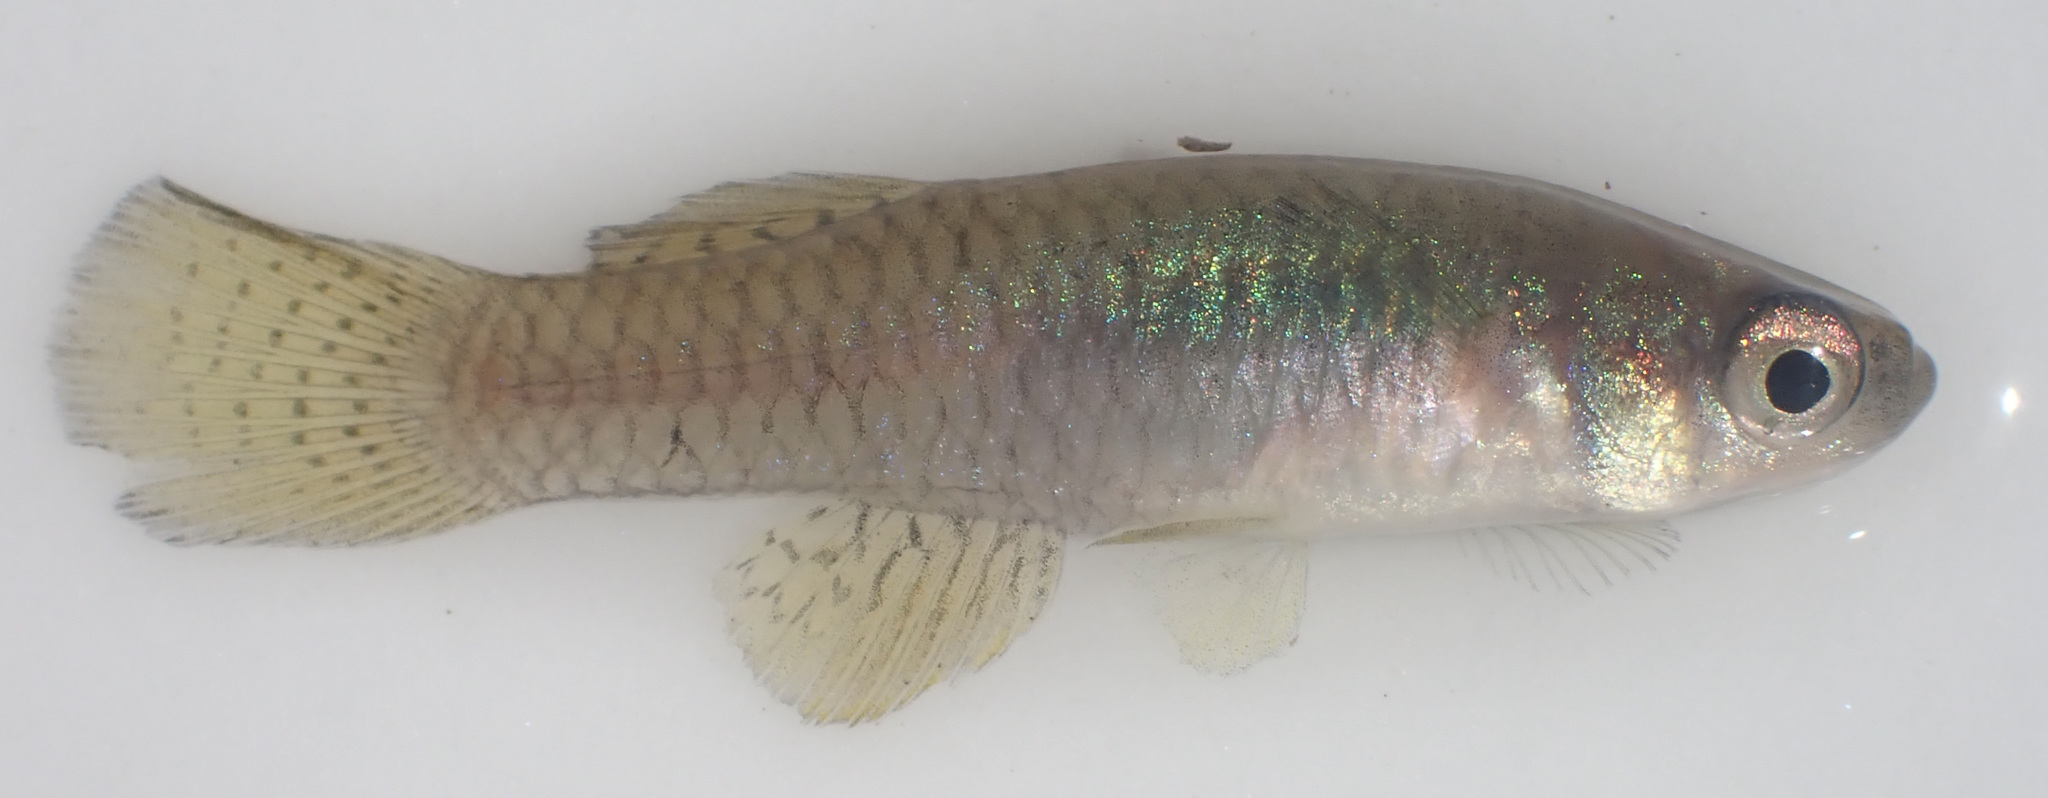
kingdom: Animalia
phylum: Chordata
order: Cyprinodontiformes
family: Poeciliidae
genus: Micropanchax
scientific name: Micropanchax hutereaui
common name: Meshscaled topminnow
